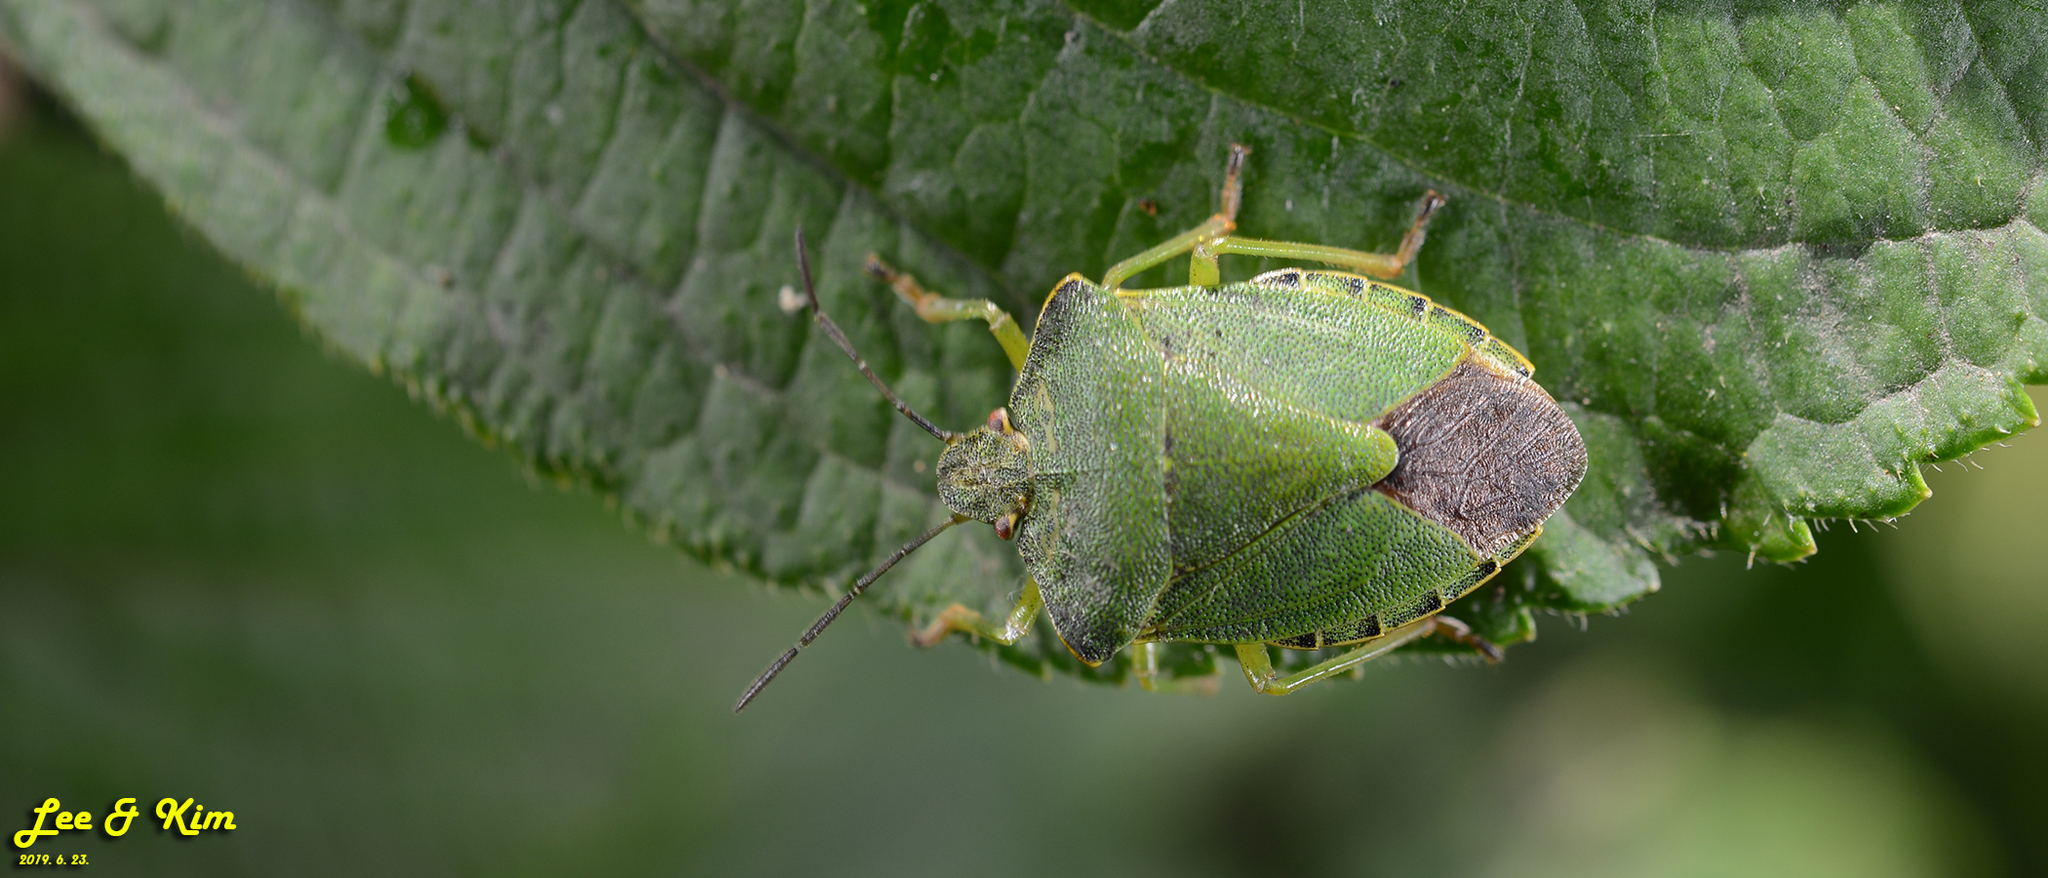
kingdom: Animalia
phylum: Arthropoda
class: Insecta
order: Hemiptera
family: Pentatomidae
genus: Palomena
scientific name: Palomena
